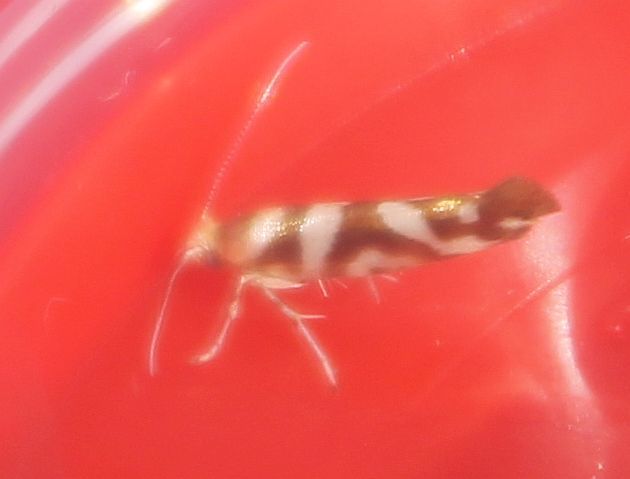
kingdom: Animalia
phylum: Arthropoda
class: Insecta
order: Lepidoptera
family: Argyresthiidae
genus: Argyresthia
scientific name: Argyresthia goedartella
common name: Golden argent
